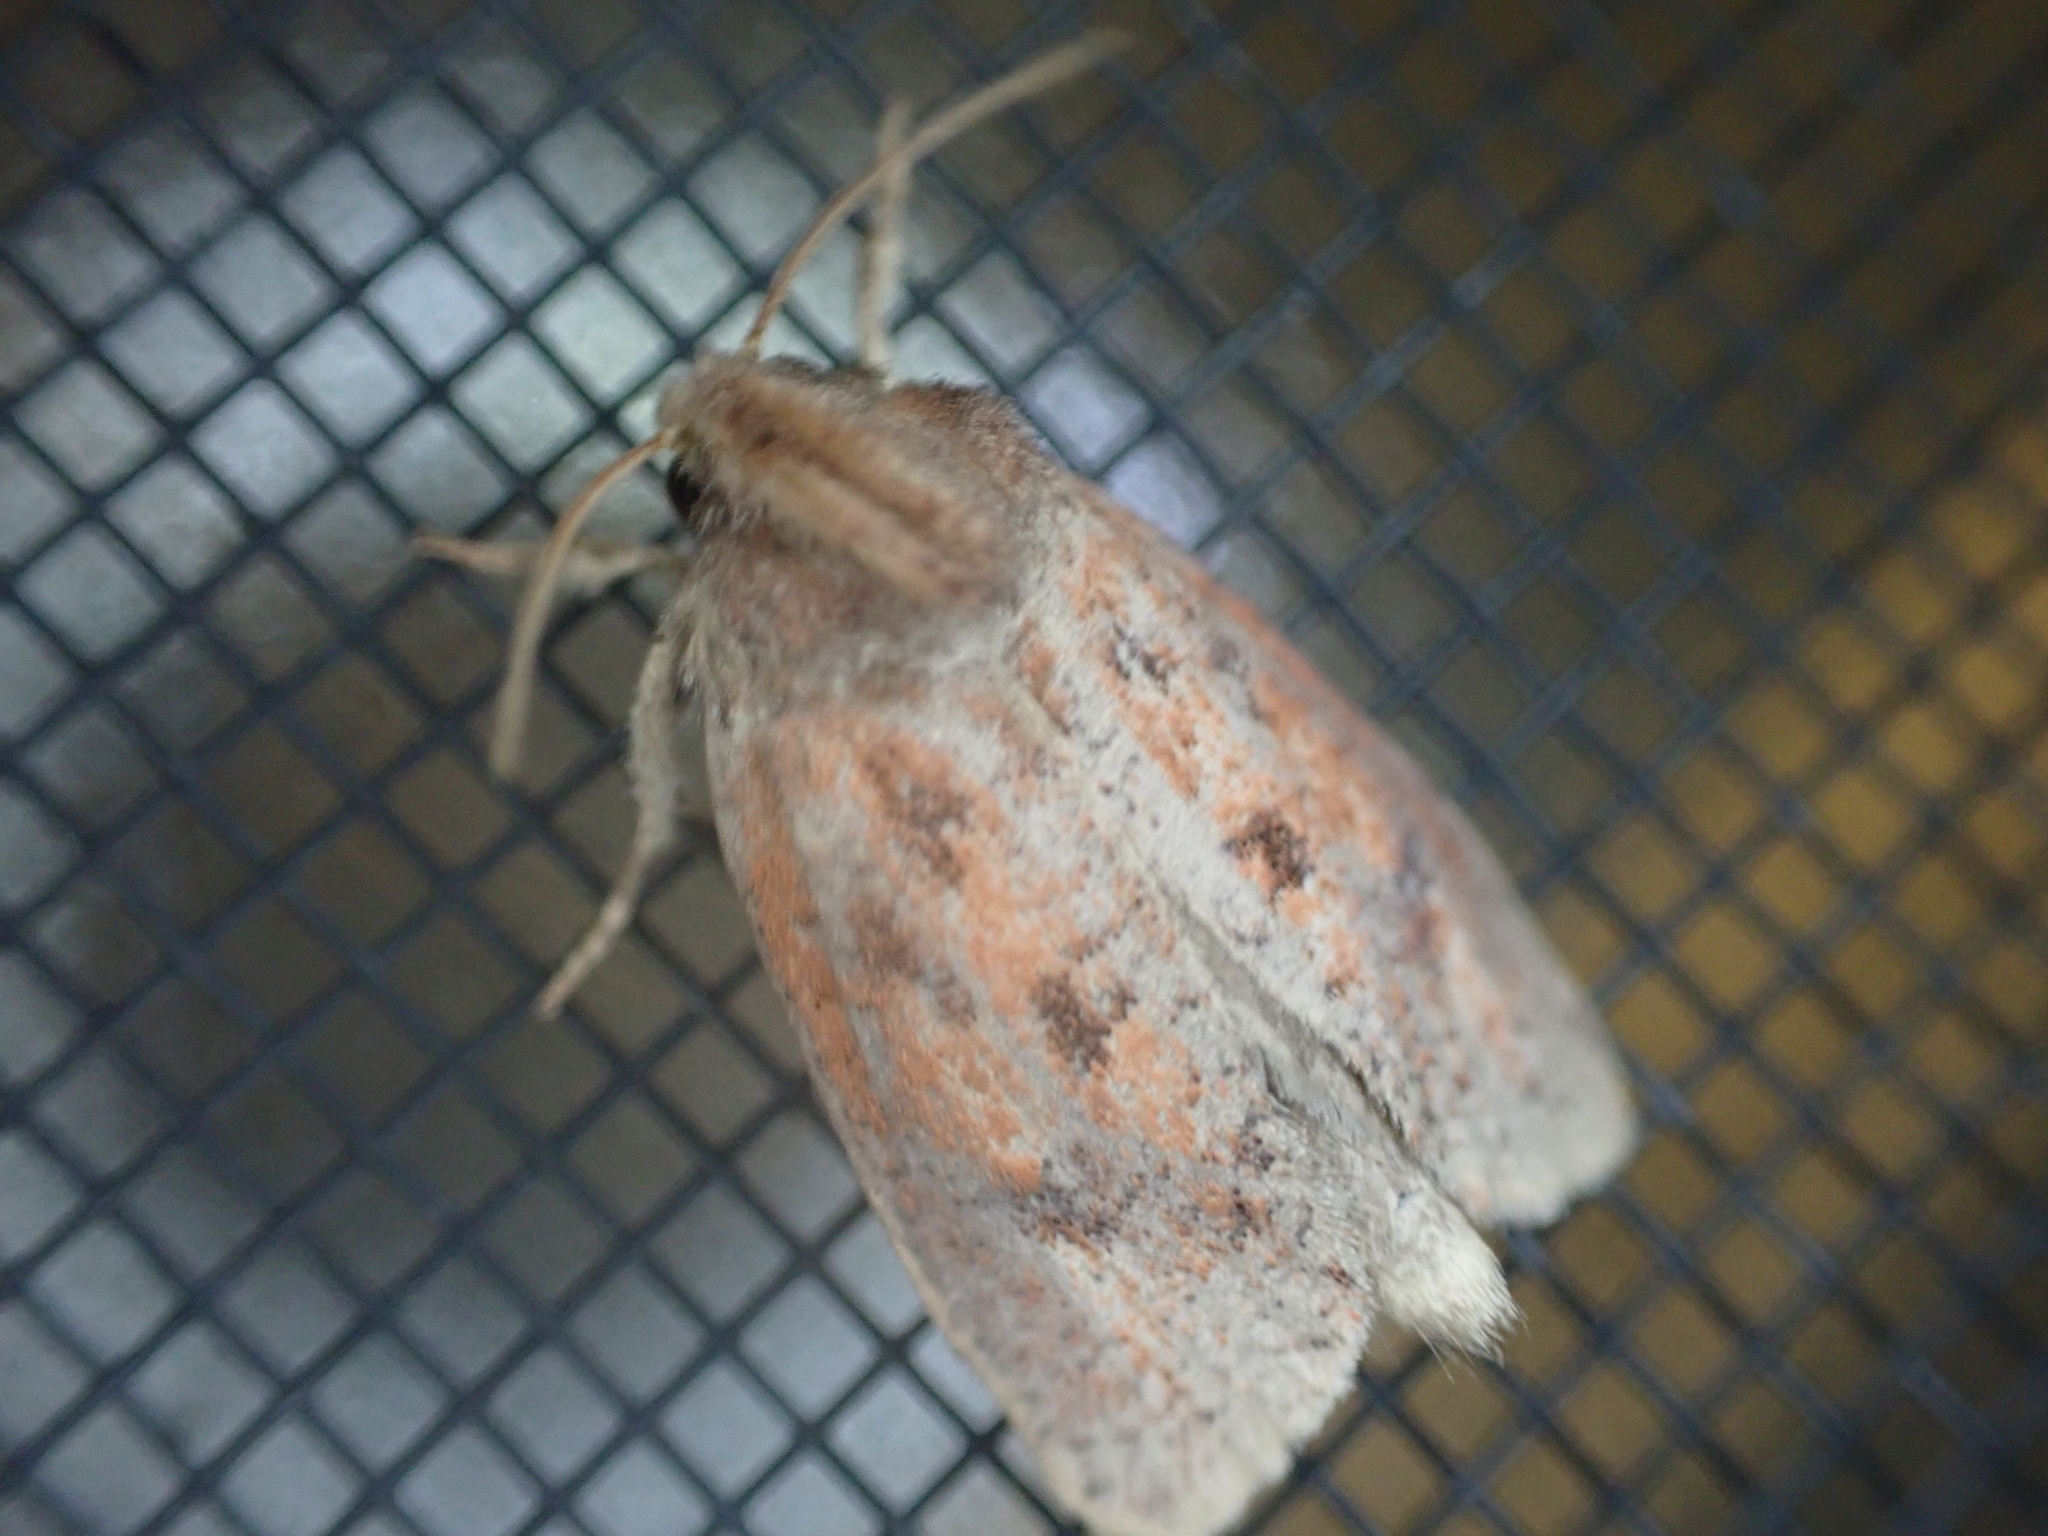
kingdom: Animalia
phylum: Arthropoda
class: Insecta
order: Lepidoptera
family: Tineidae
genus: Acrolophus
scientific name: Acrolophus plumifrontella
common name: Eastern grass tubeworm moth
